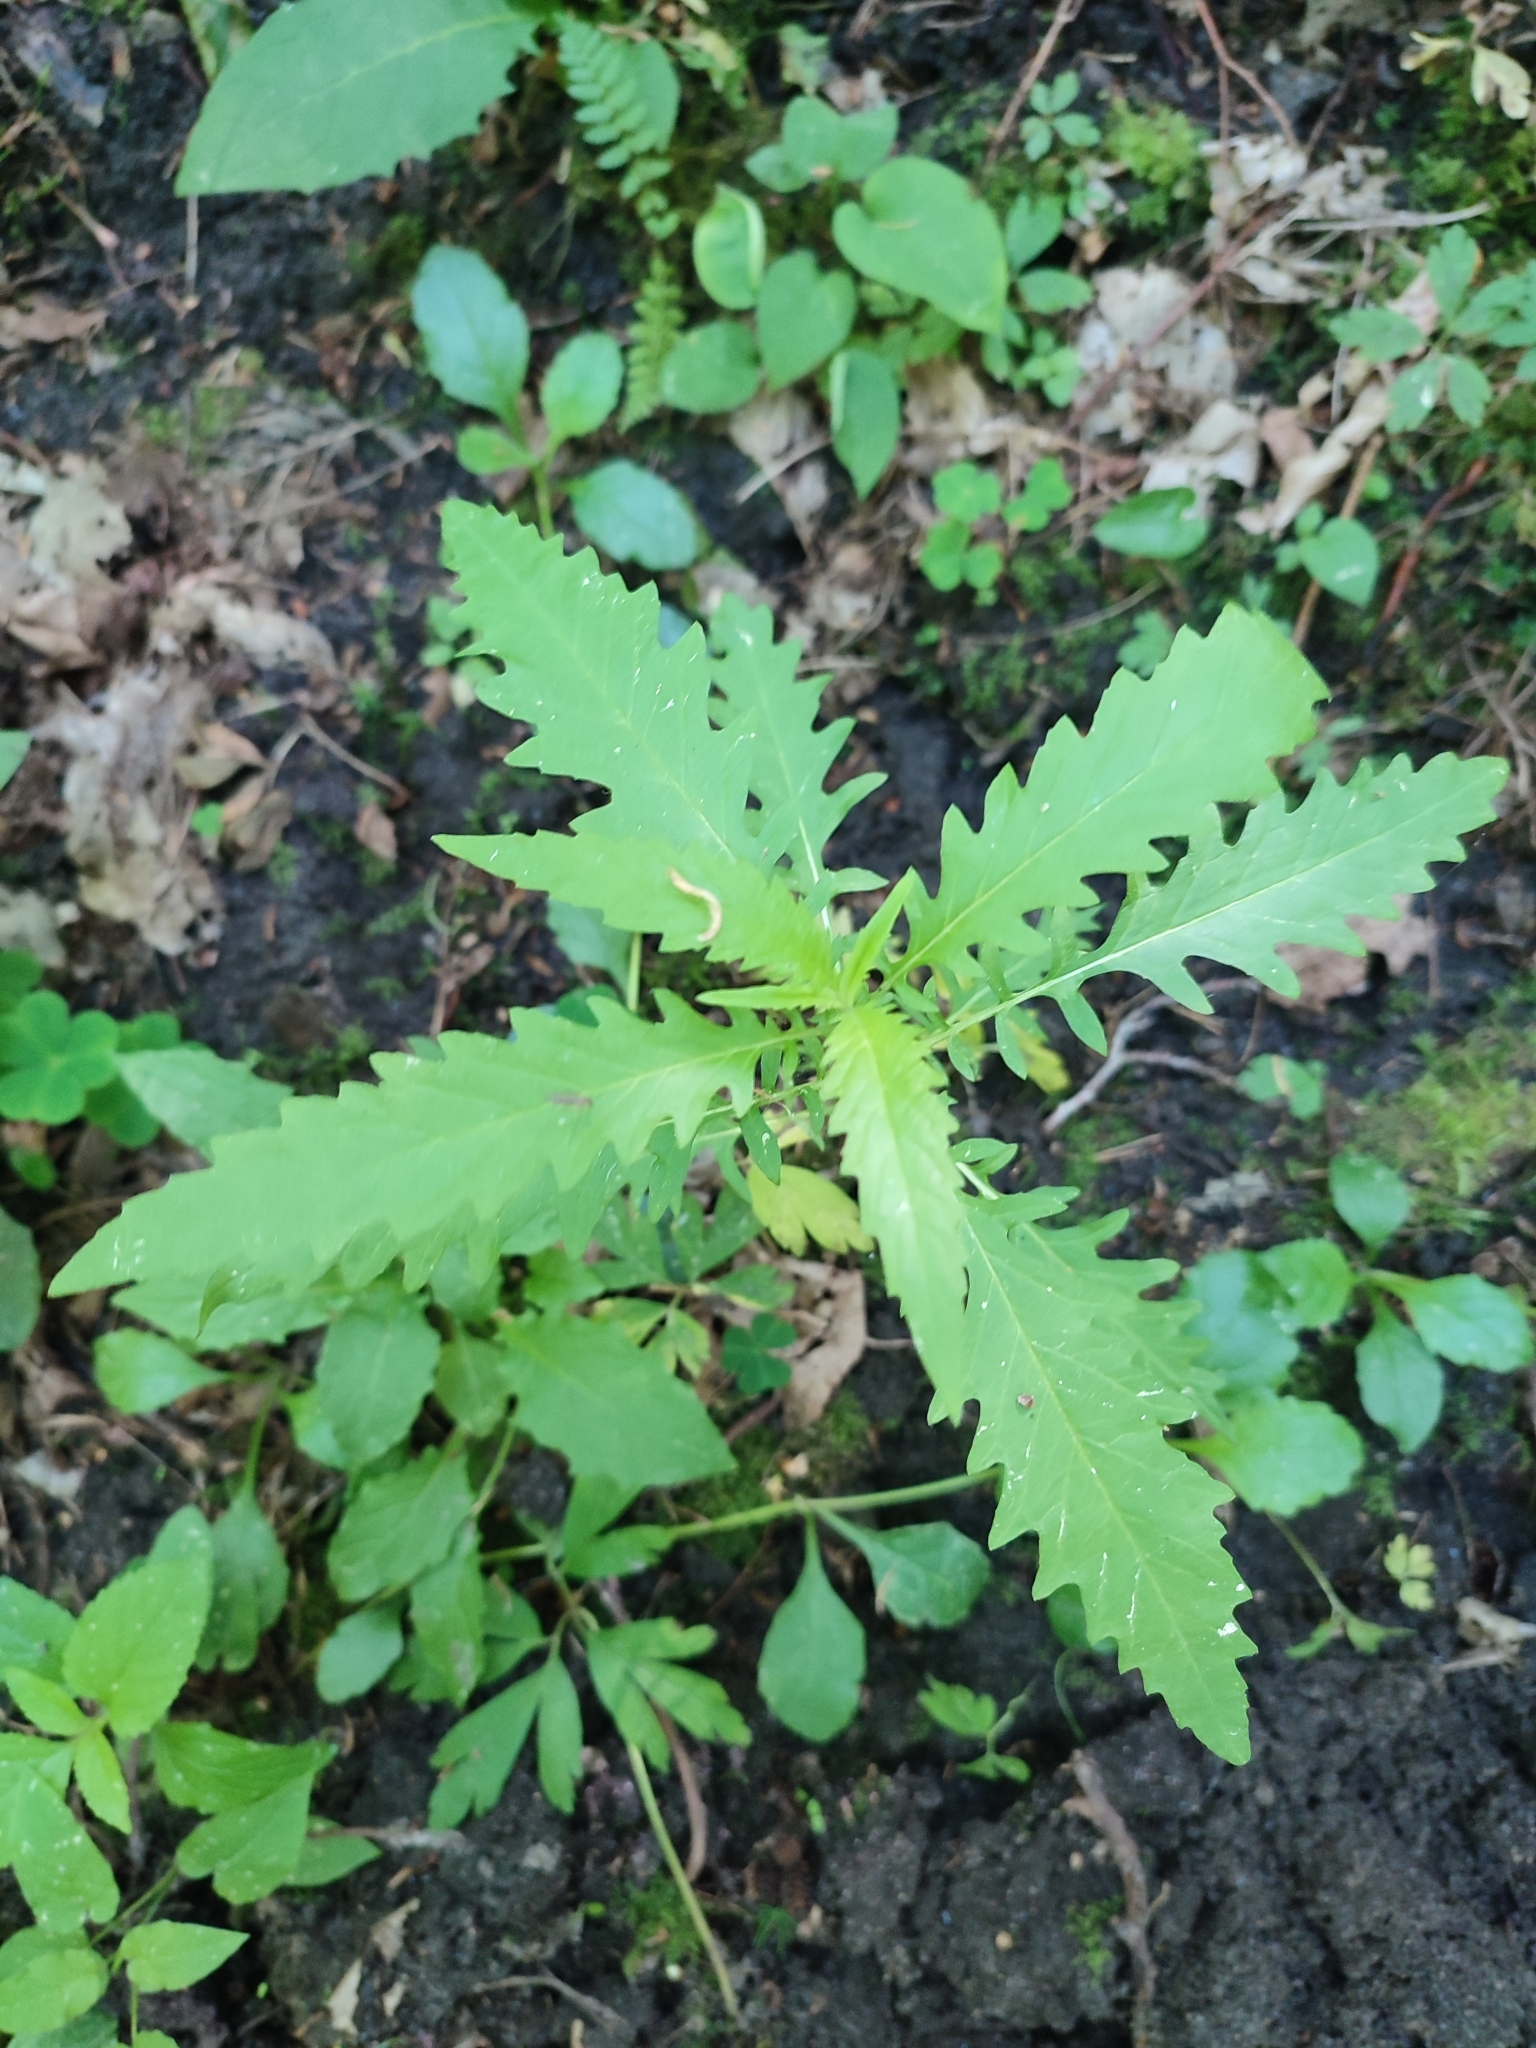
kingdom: Plantae
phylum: Tracheophyta
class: Magnoliopsida
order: Lamiales
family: Lamiaceae
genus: Lycopus
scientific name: Lycopus europaeus
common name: European bugleweed
